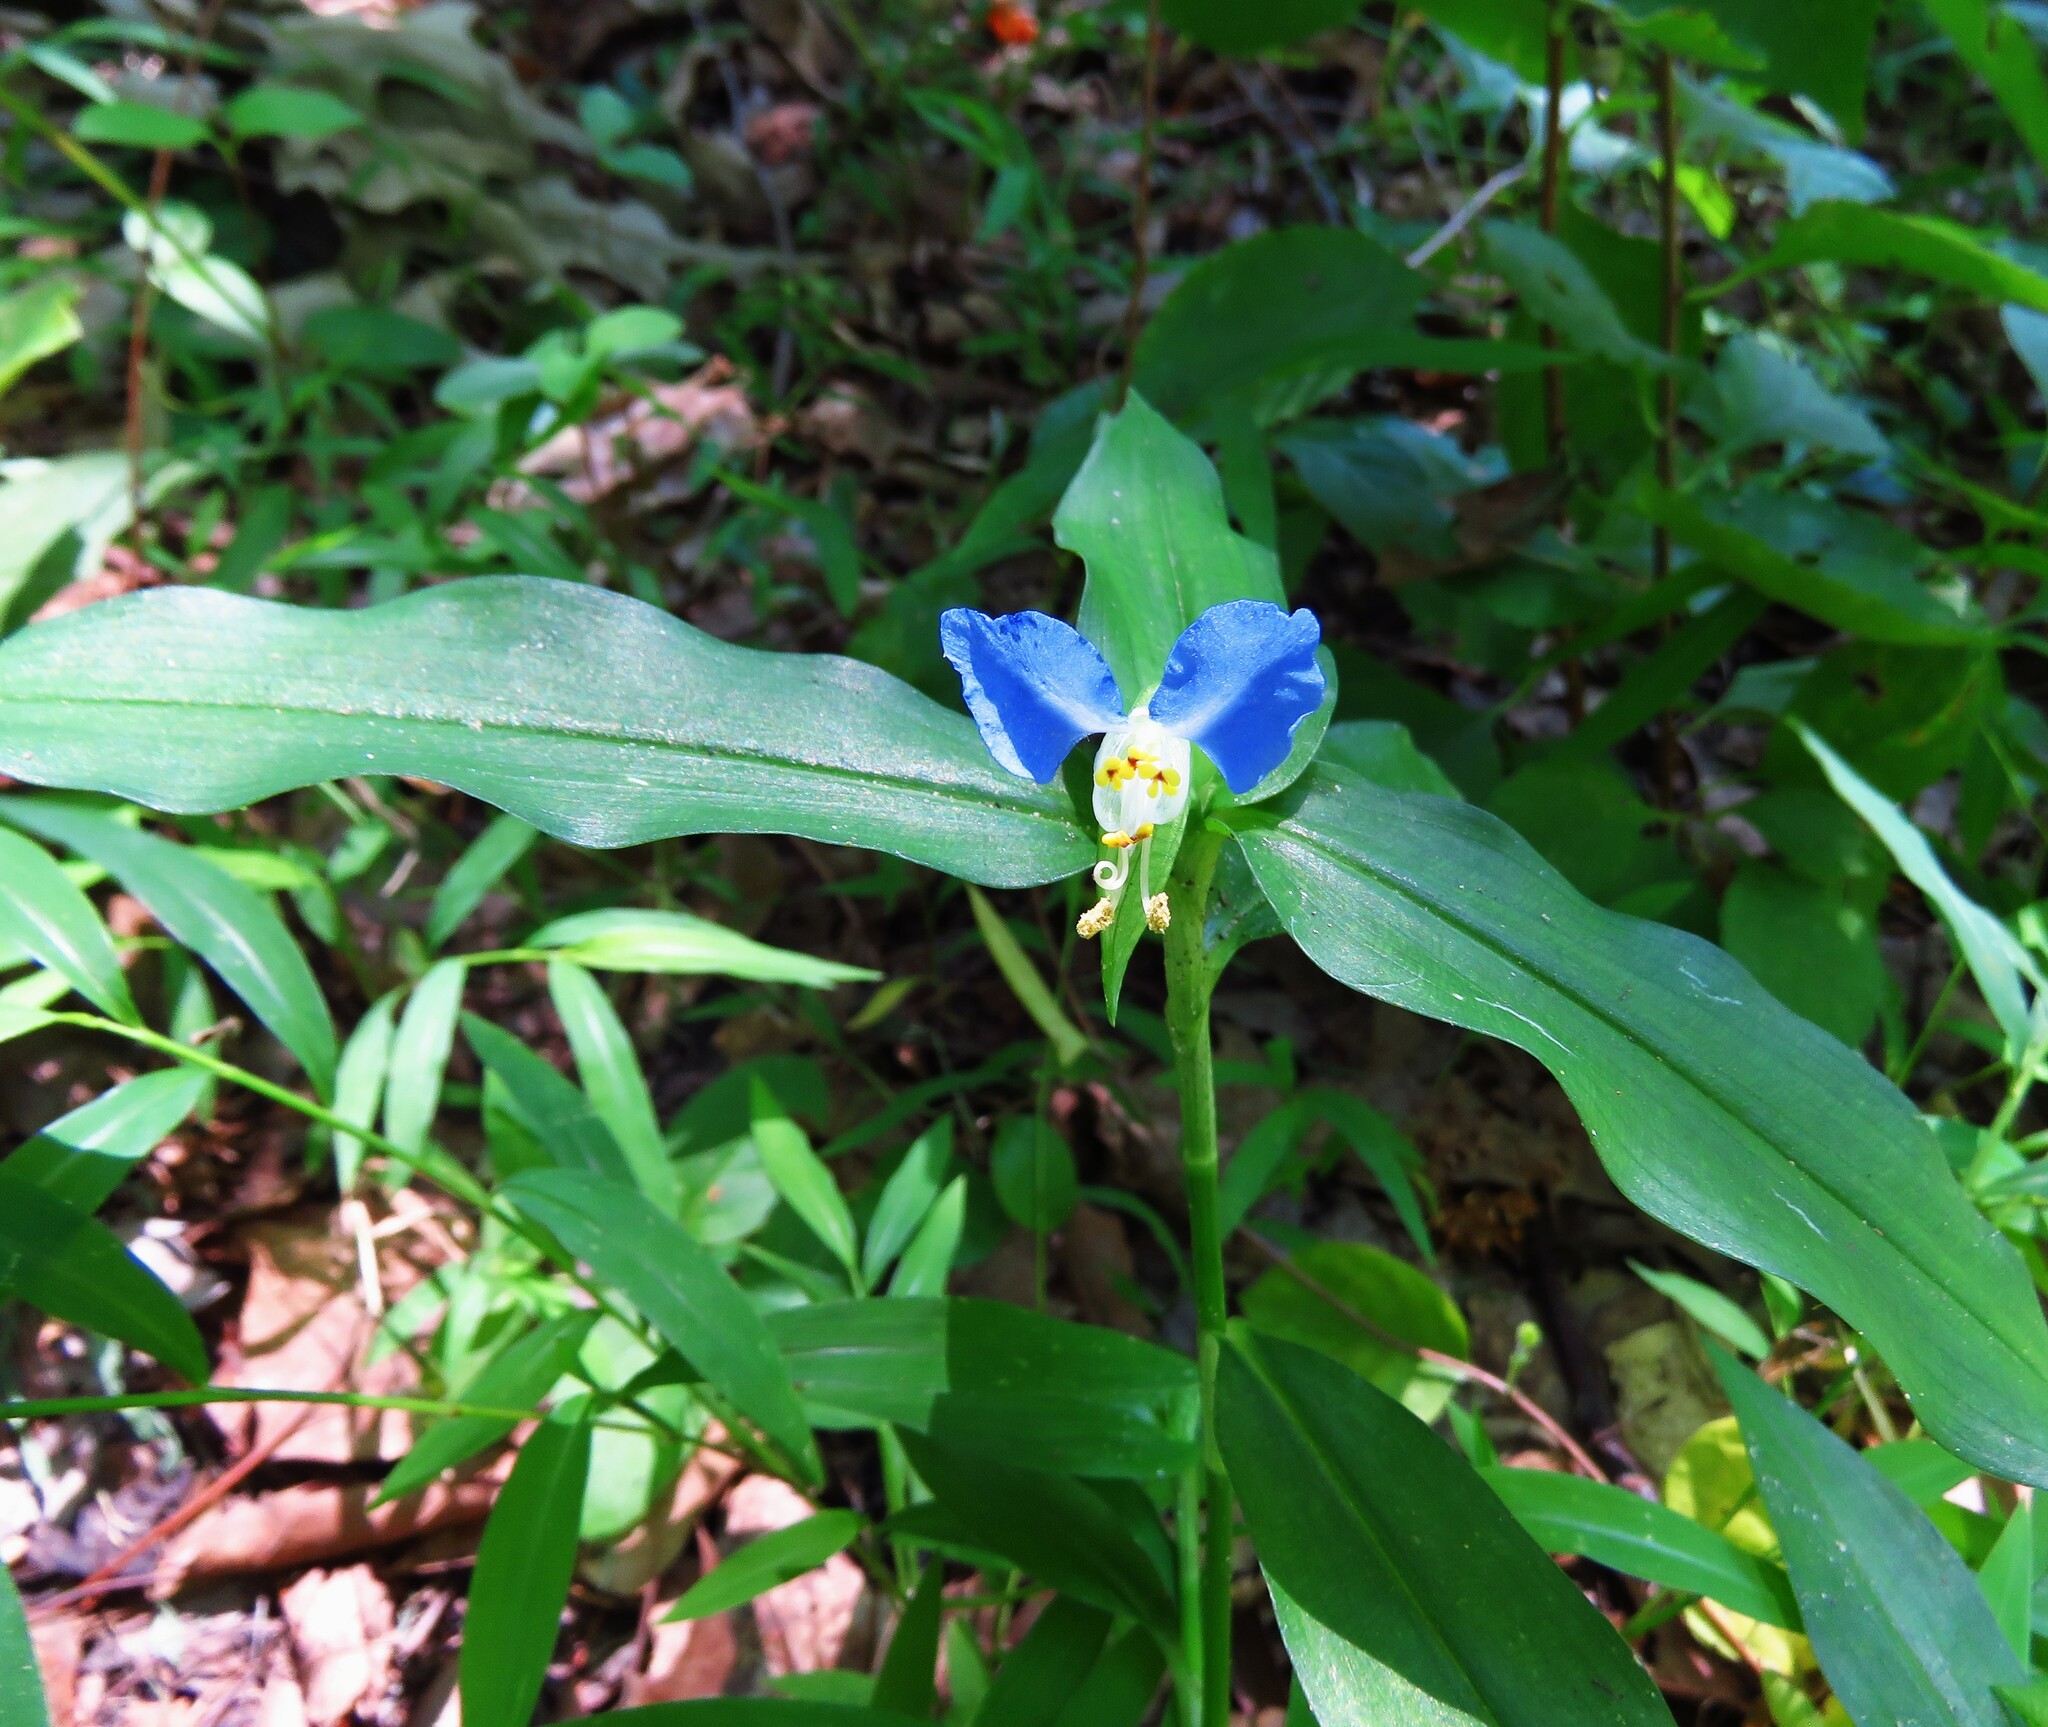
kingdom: Plantae
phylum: Tracheophyta
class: Liliopsida
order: Commelinales
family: Commelinaceae
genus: Commelina
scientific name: Commelina communis
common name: Asiatic dayflower
